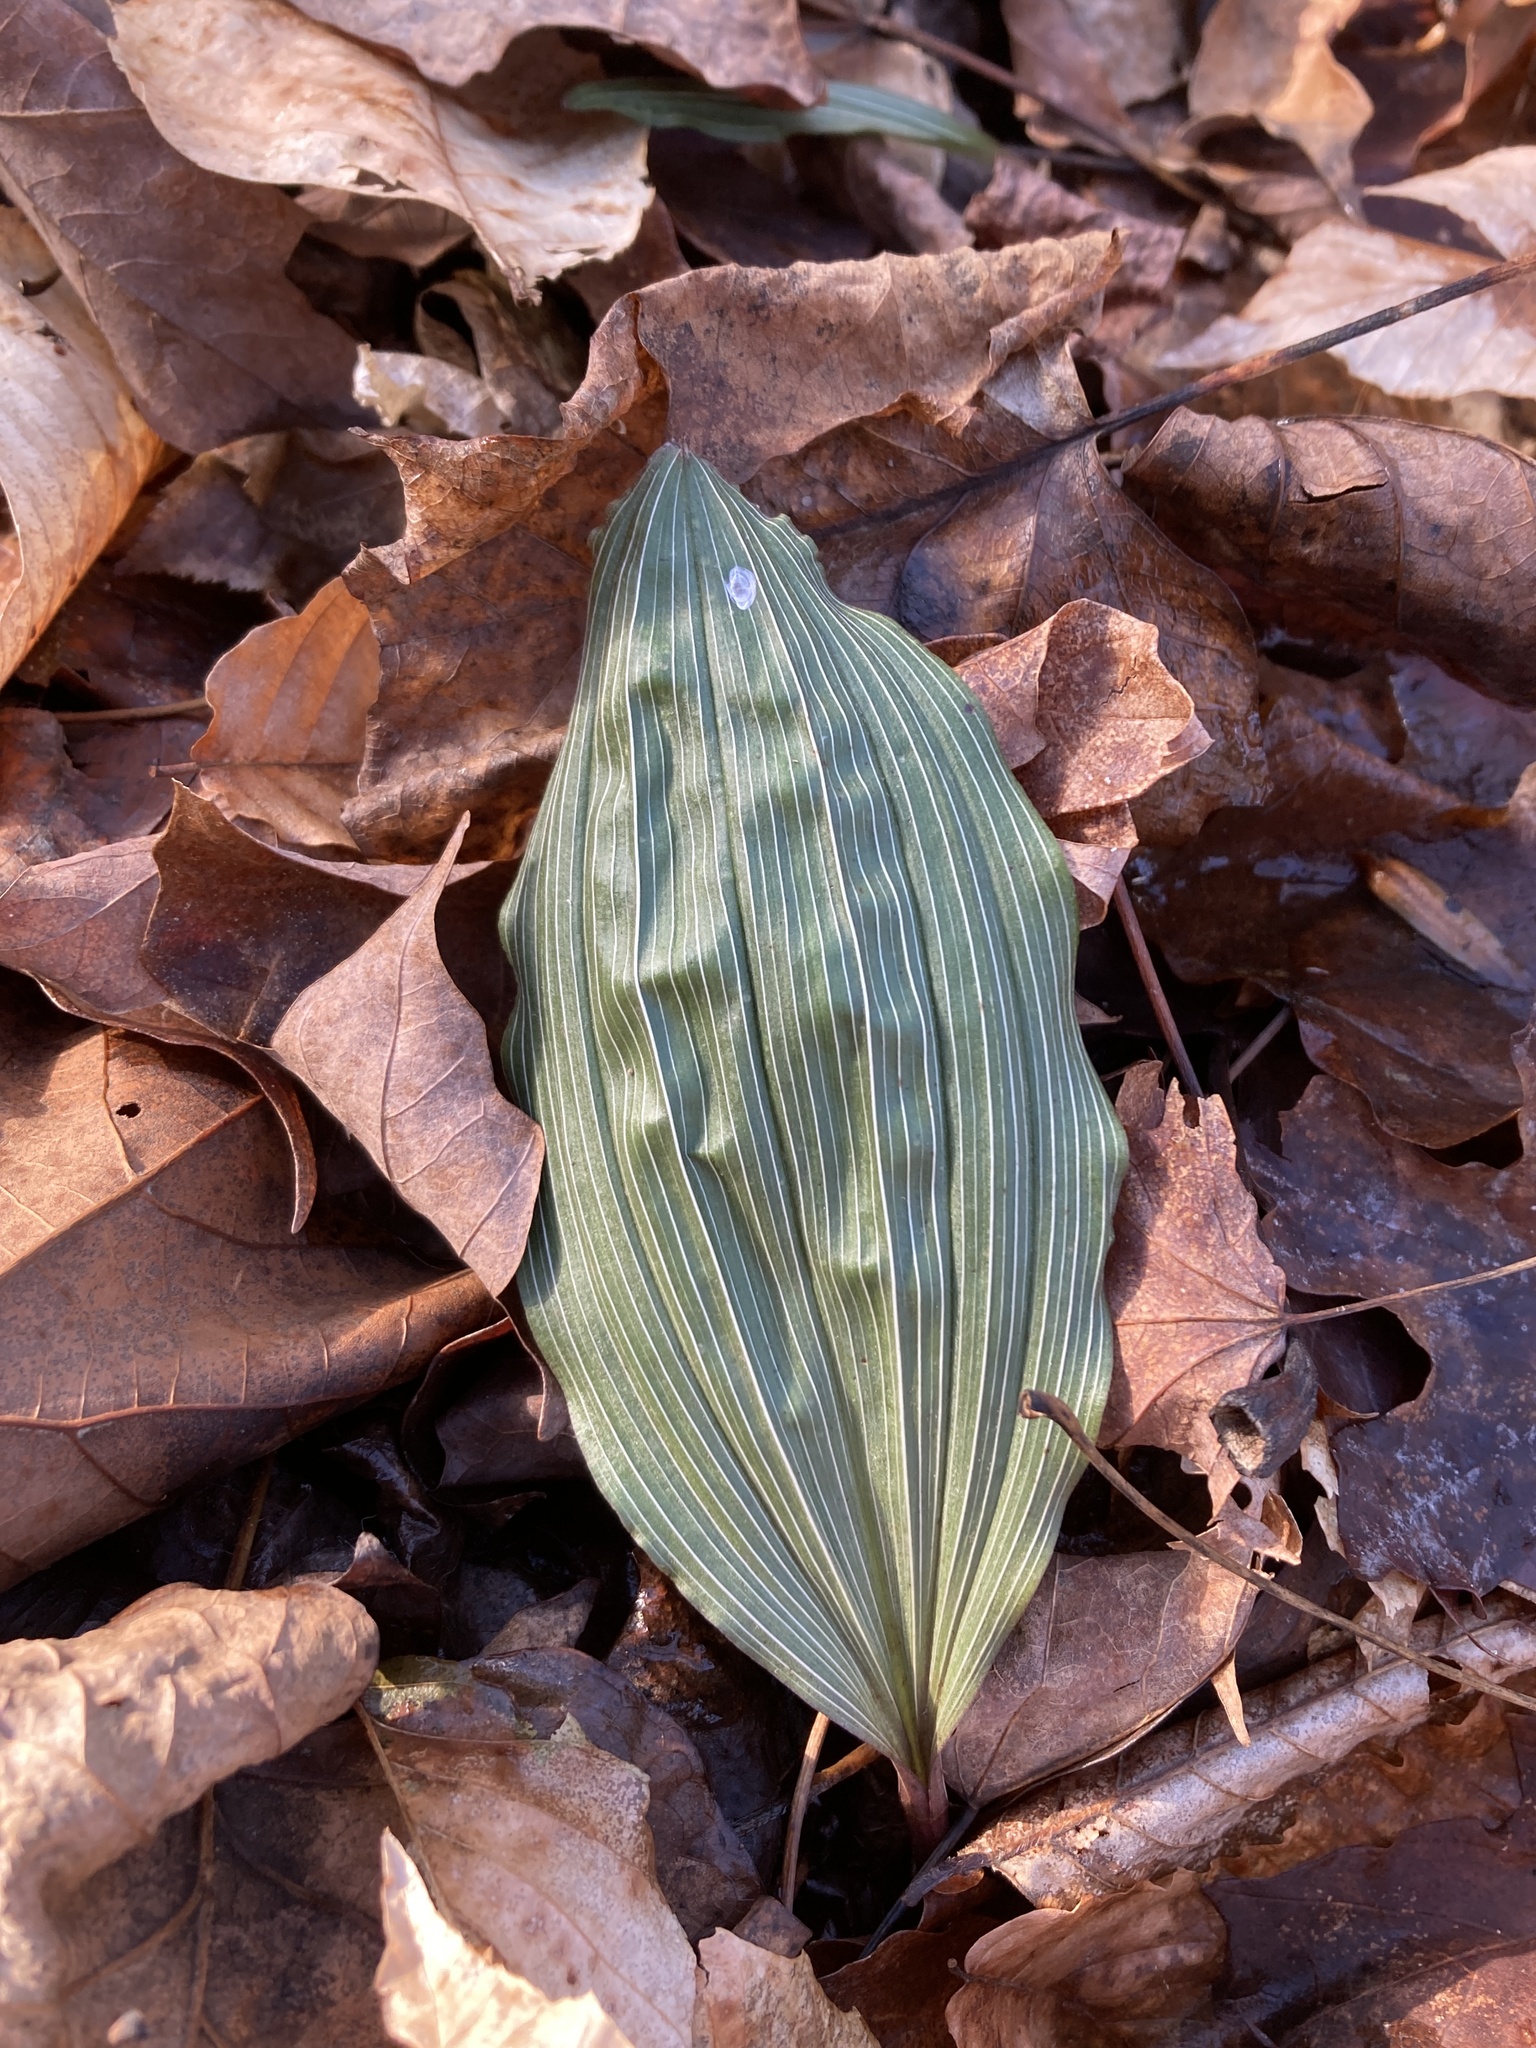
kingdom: Plantae
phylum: Tracheophyta
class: Liliopsida
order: Asparagales
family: Orchidaceae
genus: Aplectrum
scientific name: Aplectrum hyemale
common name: Adam-and-eve
